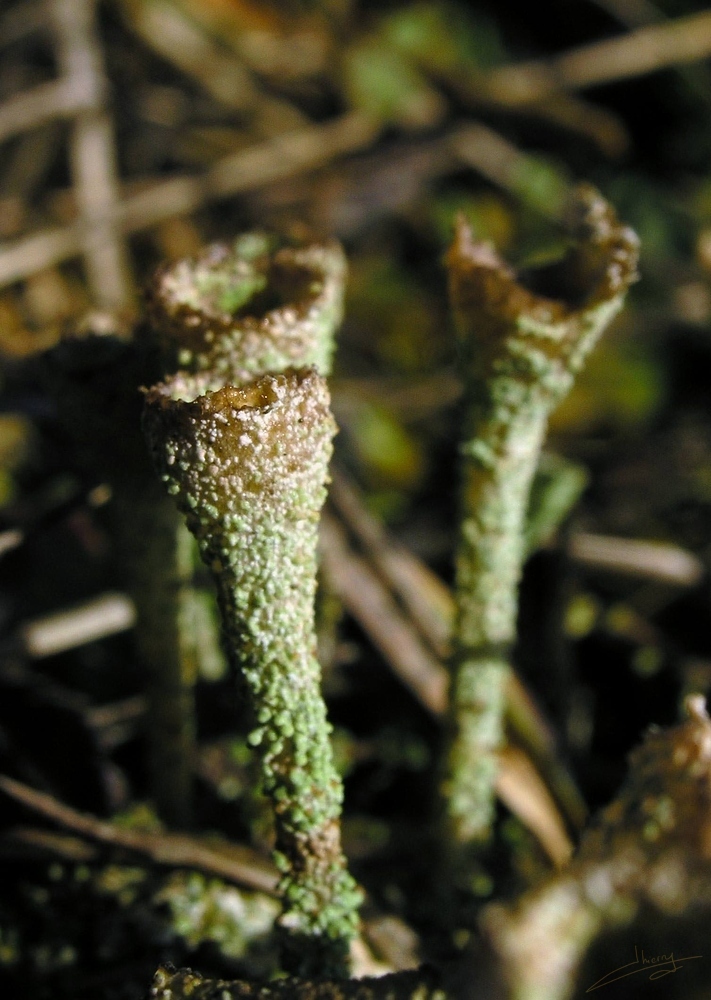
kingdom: Fungi
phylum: Ascomycota
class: Lecanoromycetes
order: Lecanorales
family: Cladoniaceae
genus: Cladonia
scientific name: Cladonia pyxidata
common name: Pebbled pixie cup
